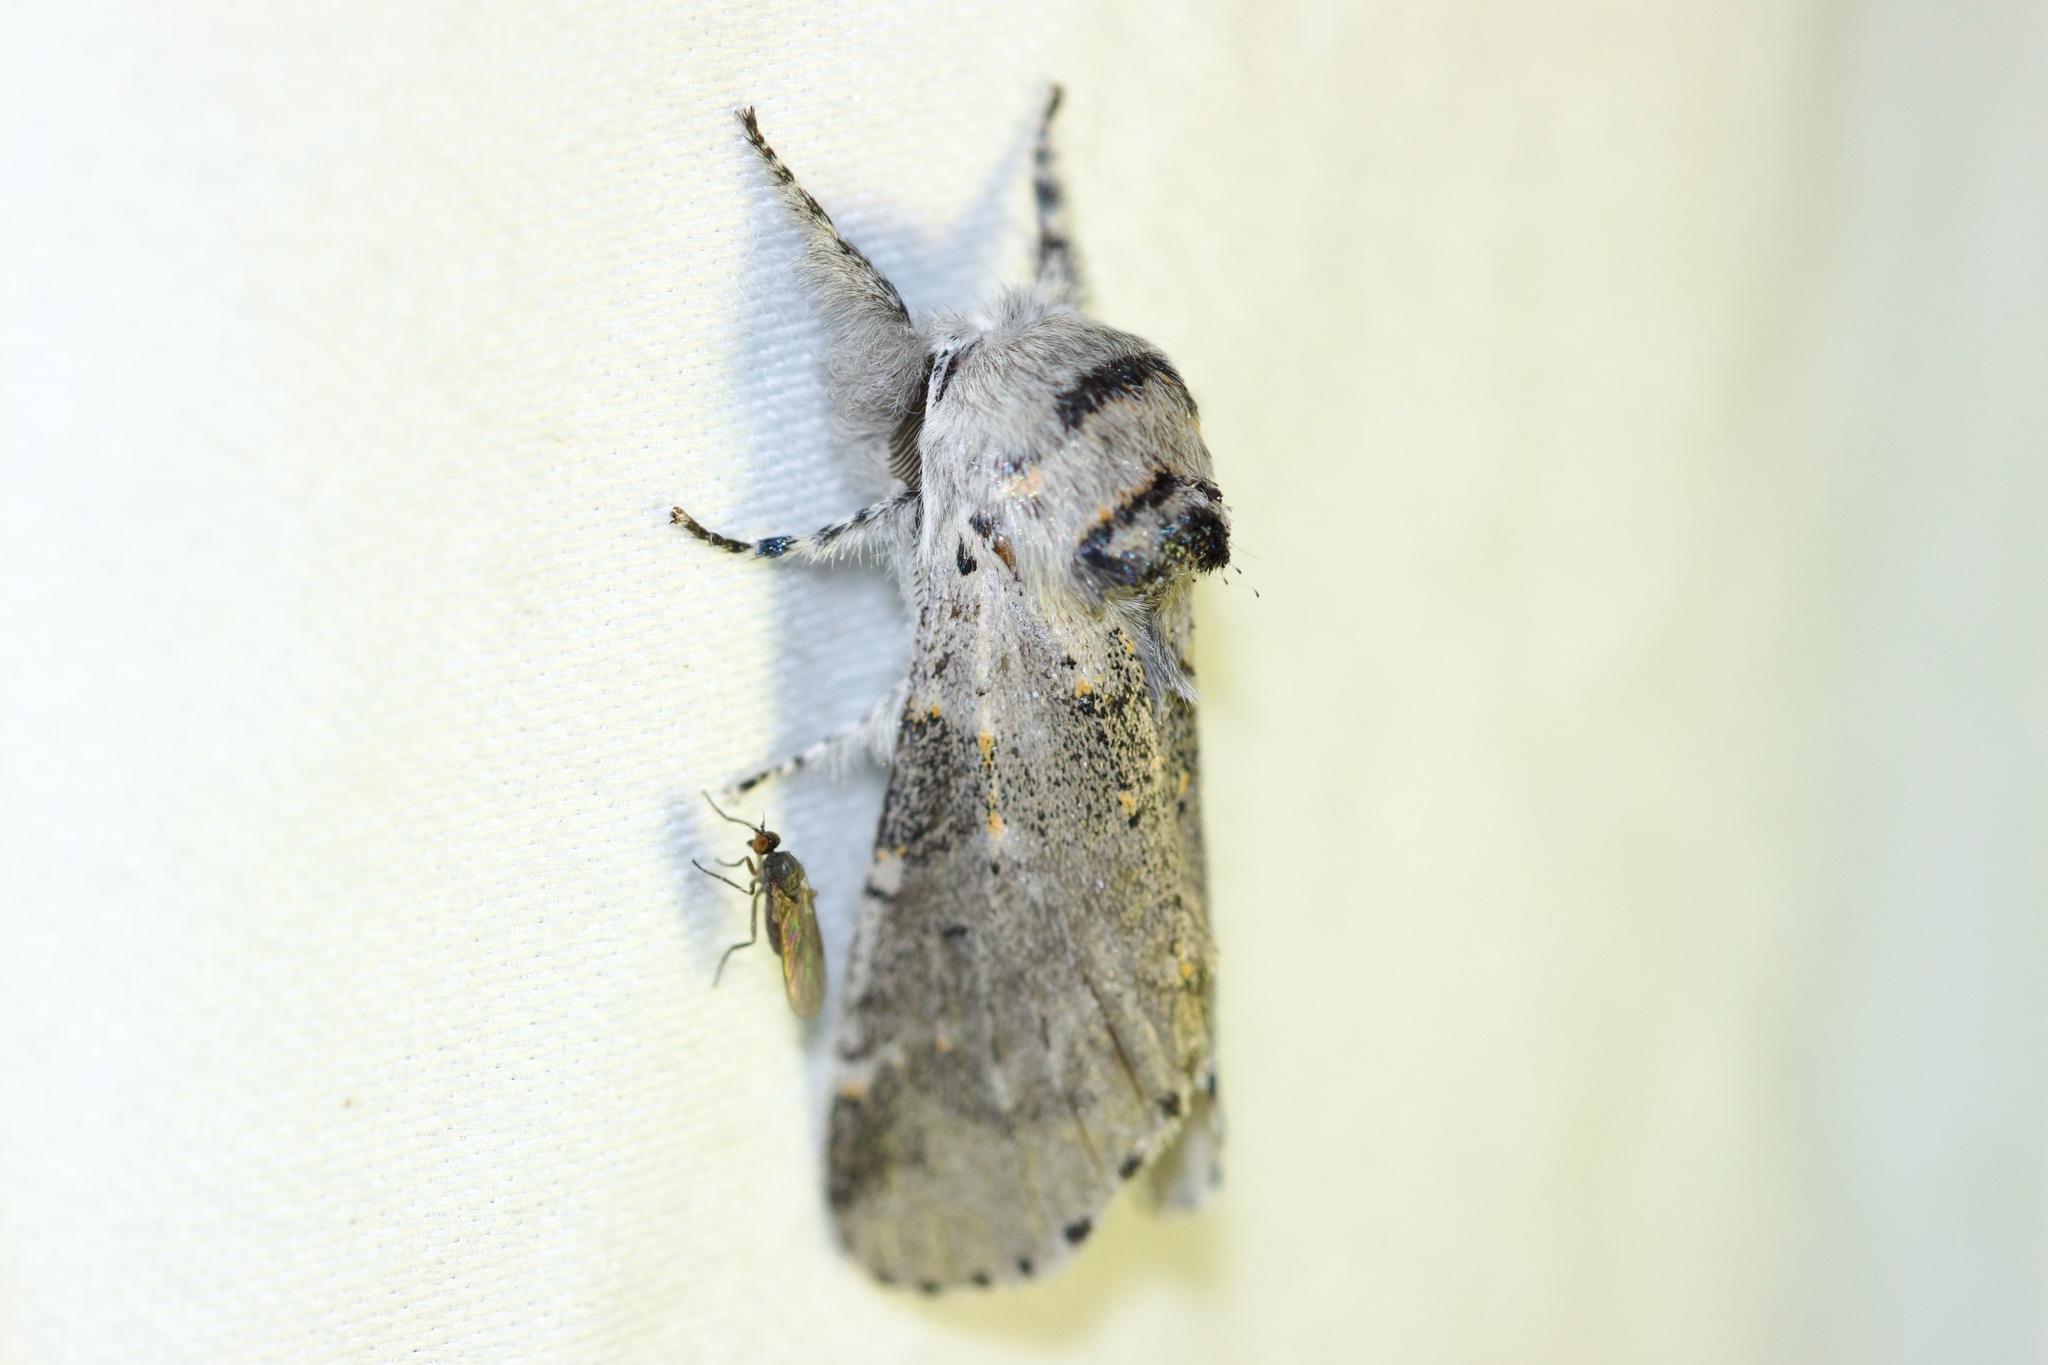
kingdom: Animalia
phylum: Arthropoda
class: Insecta
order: Lepidoptera
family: Notodontidae
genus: Furcula
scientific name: Furcula cinerea
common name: Gray furcula
